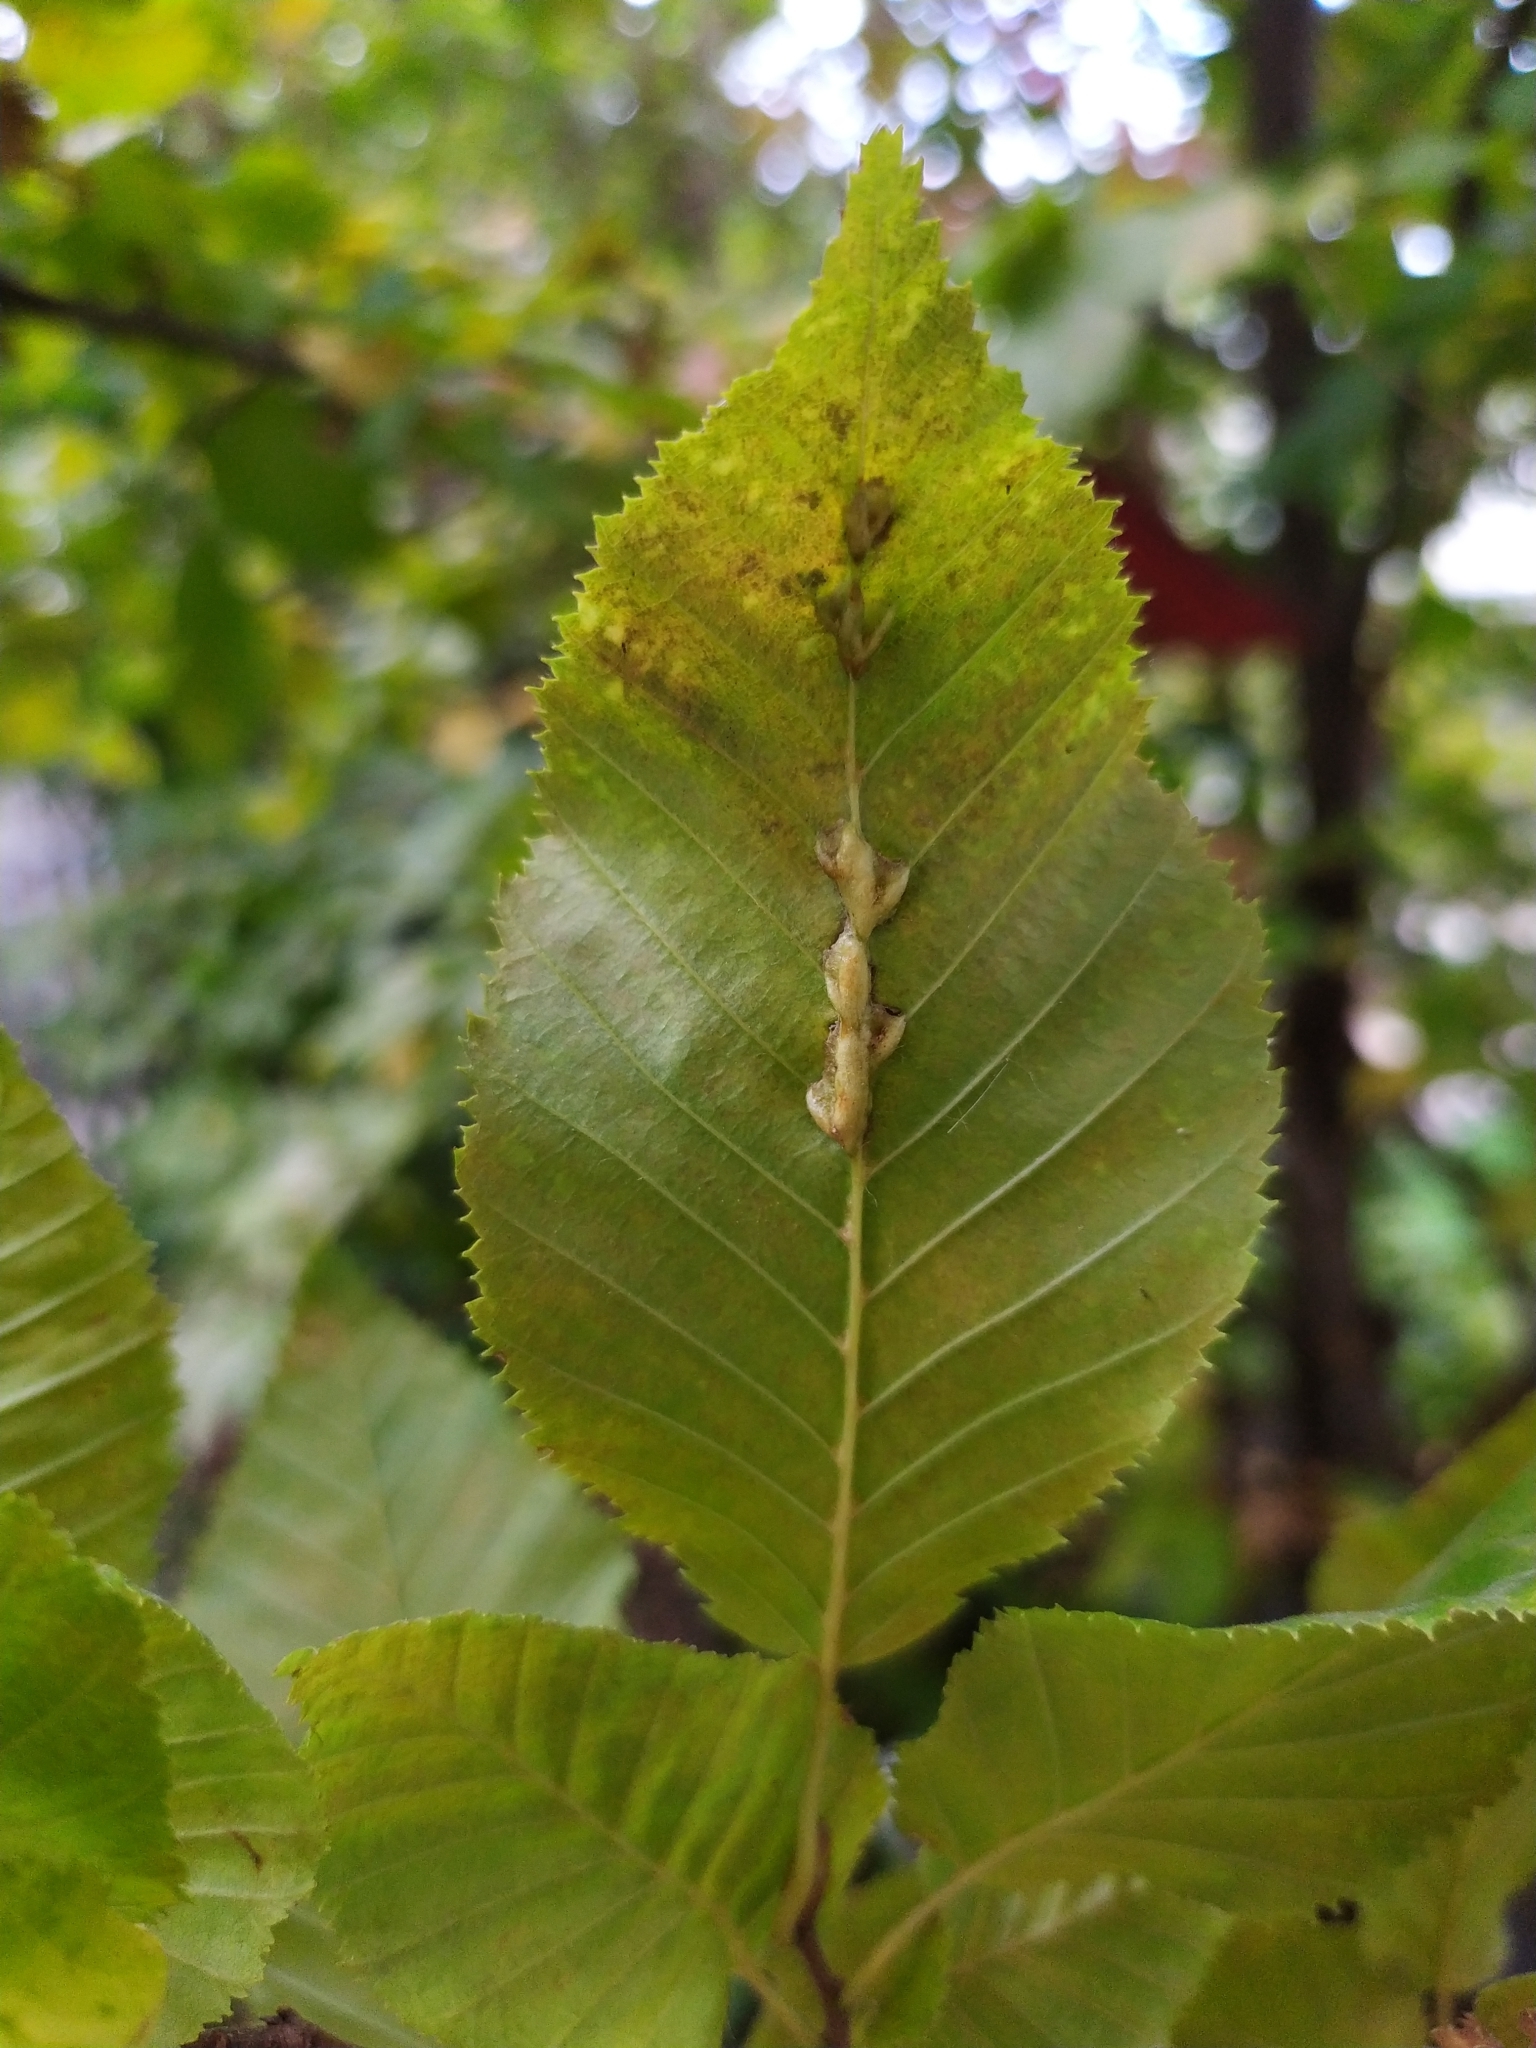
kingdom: Animalia
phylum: Arthropoda
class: Insecta
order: Diptera
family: Cecidomyiidae
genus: Zygiobia
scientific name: Zygiobia carpini
